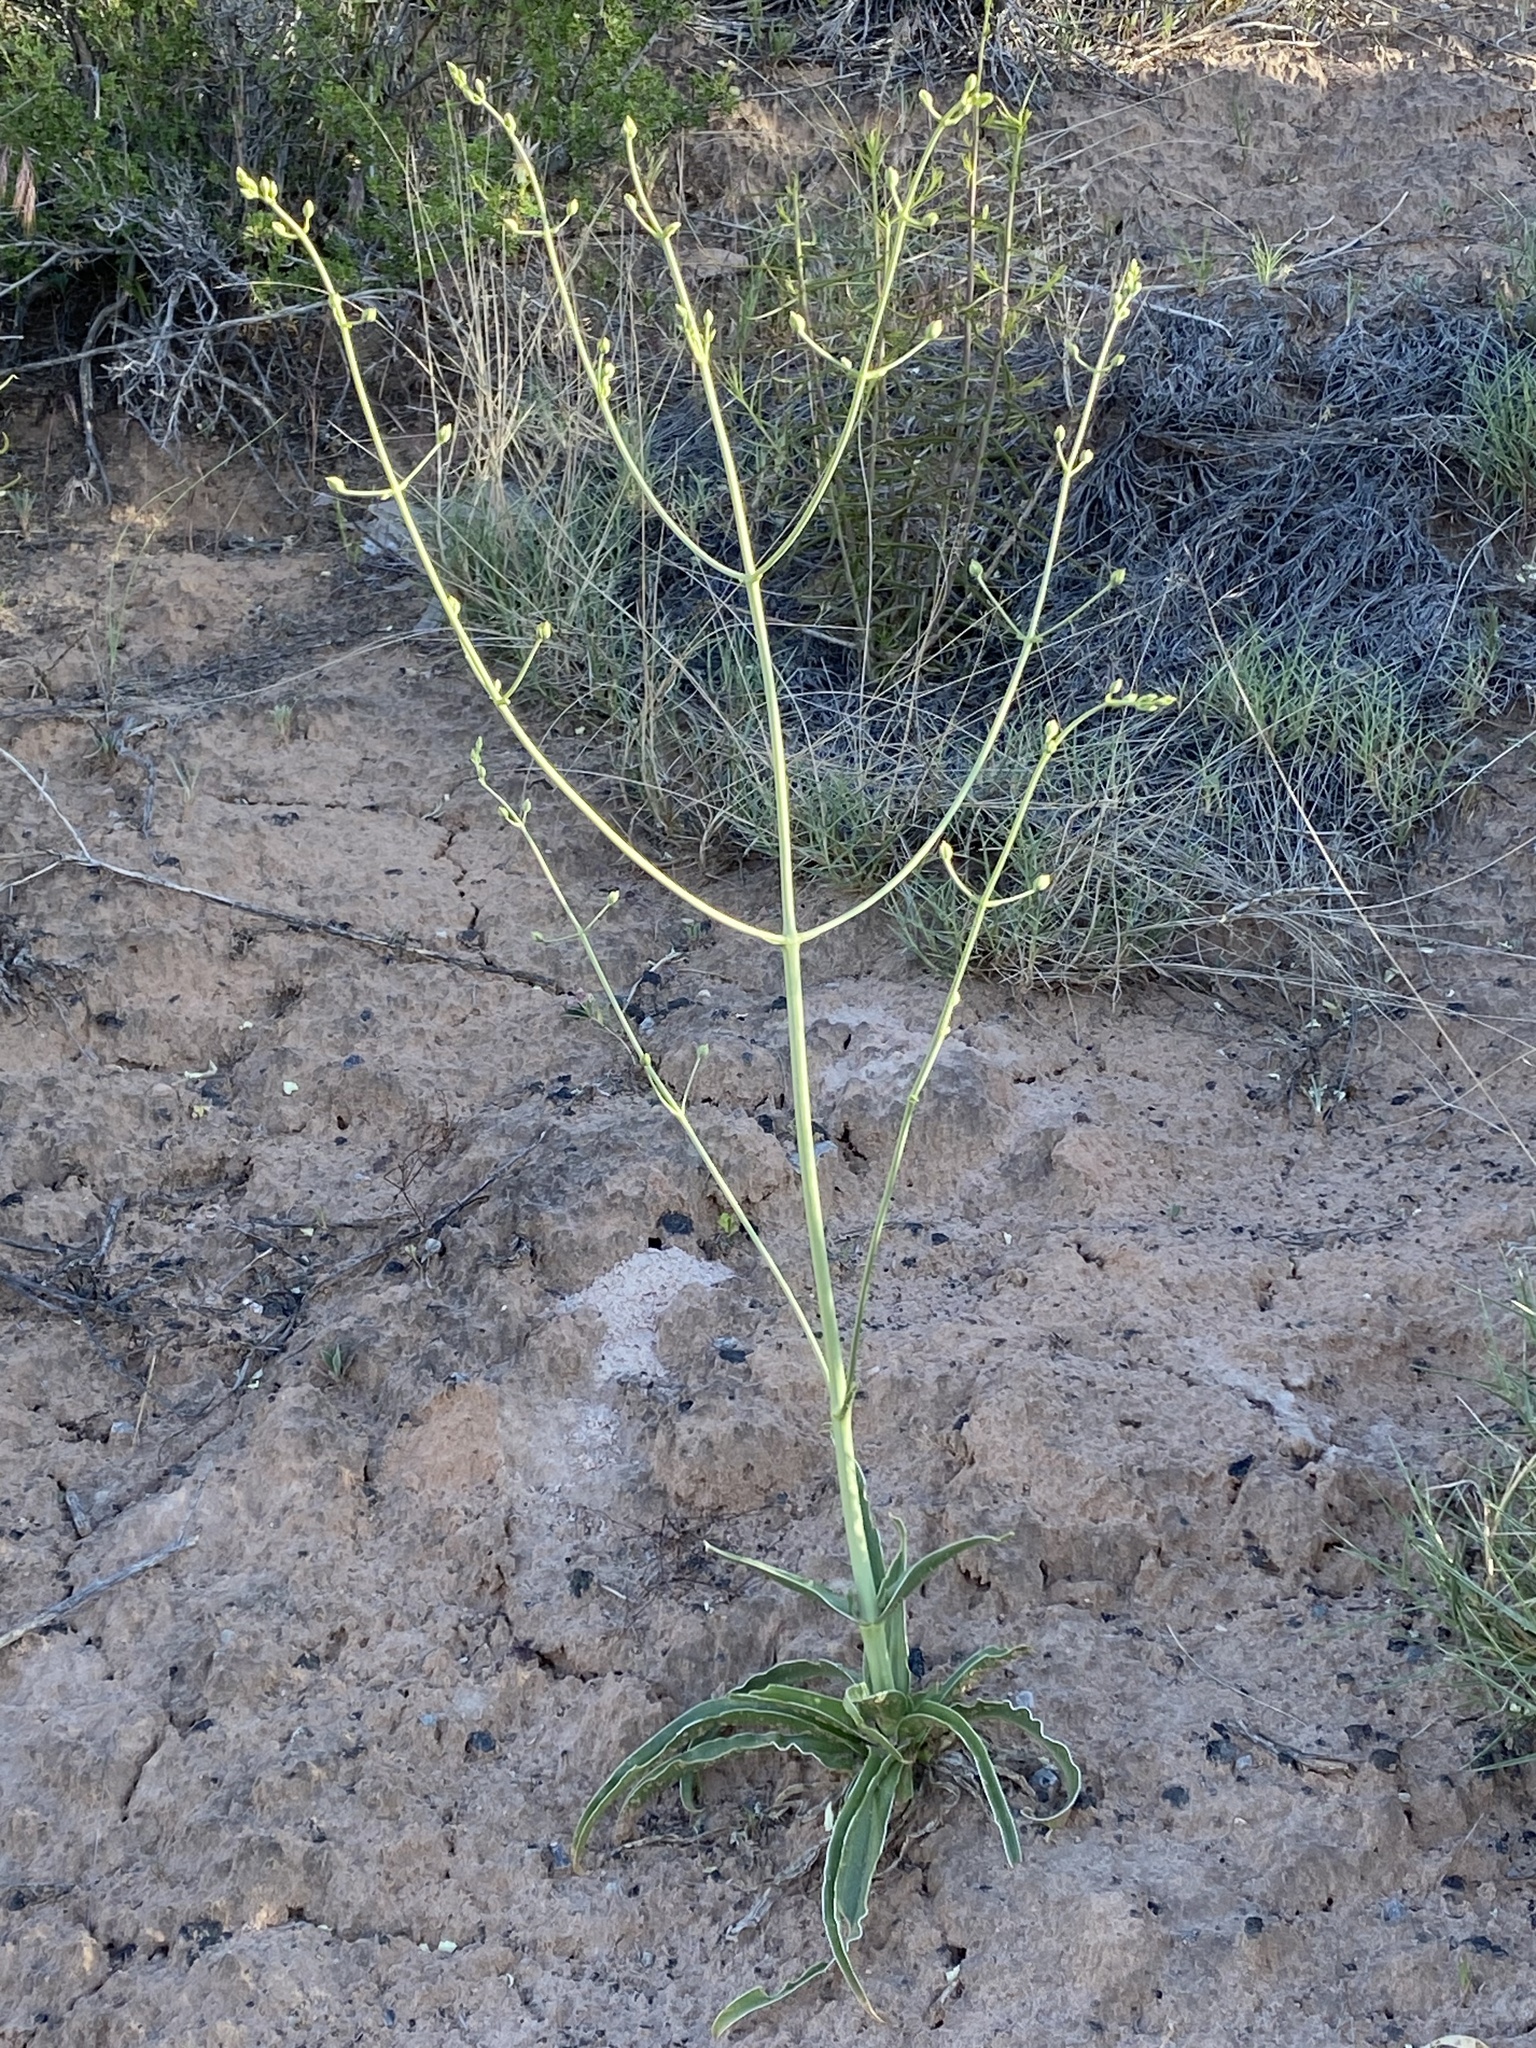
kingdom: Plantae
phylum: Tracheophyta
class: Magnoliopsida
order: Gentianales
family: Gentianaceae
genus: Frasera
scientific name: Frasera paniculata
